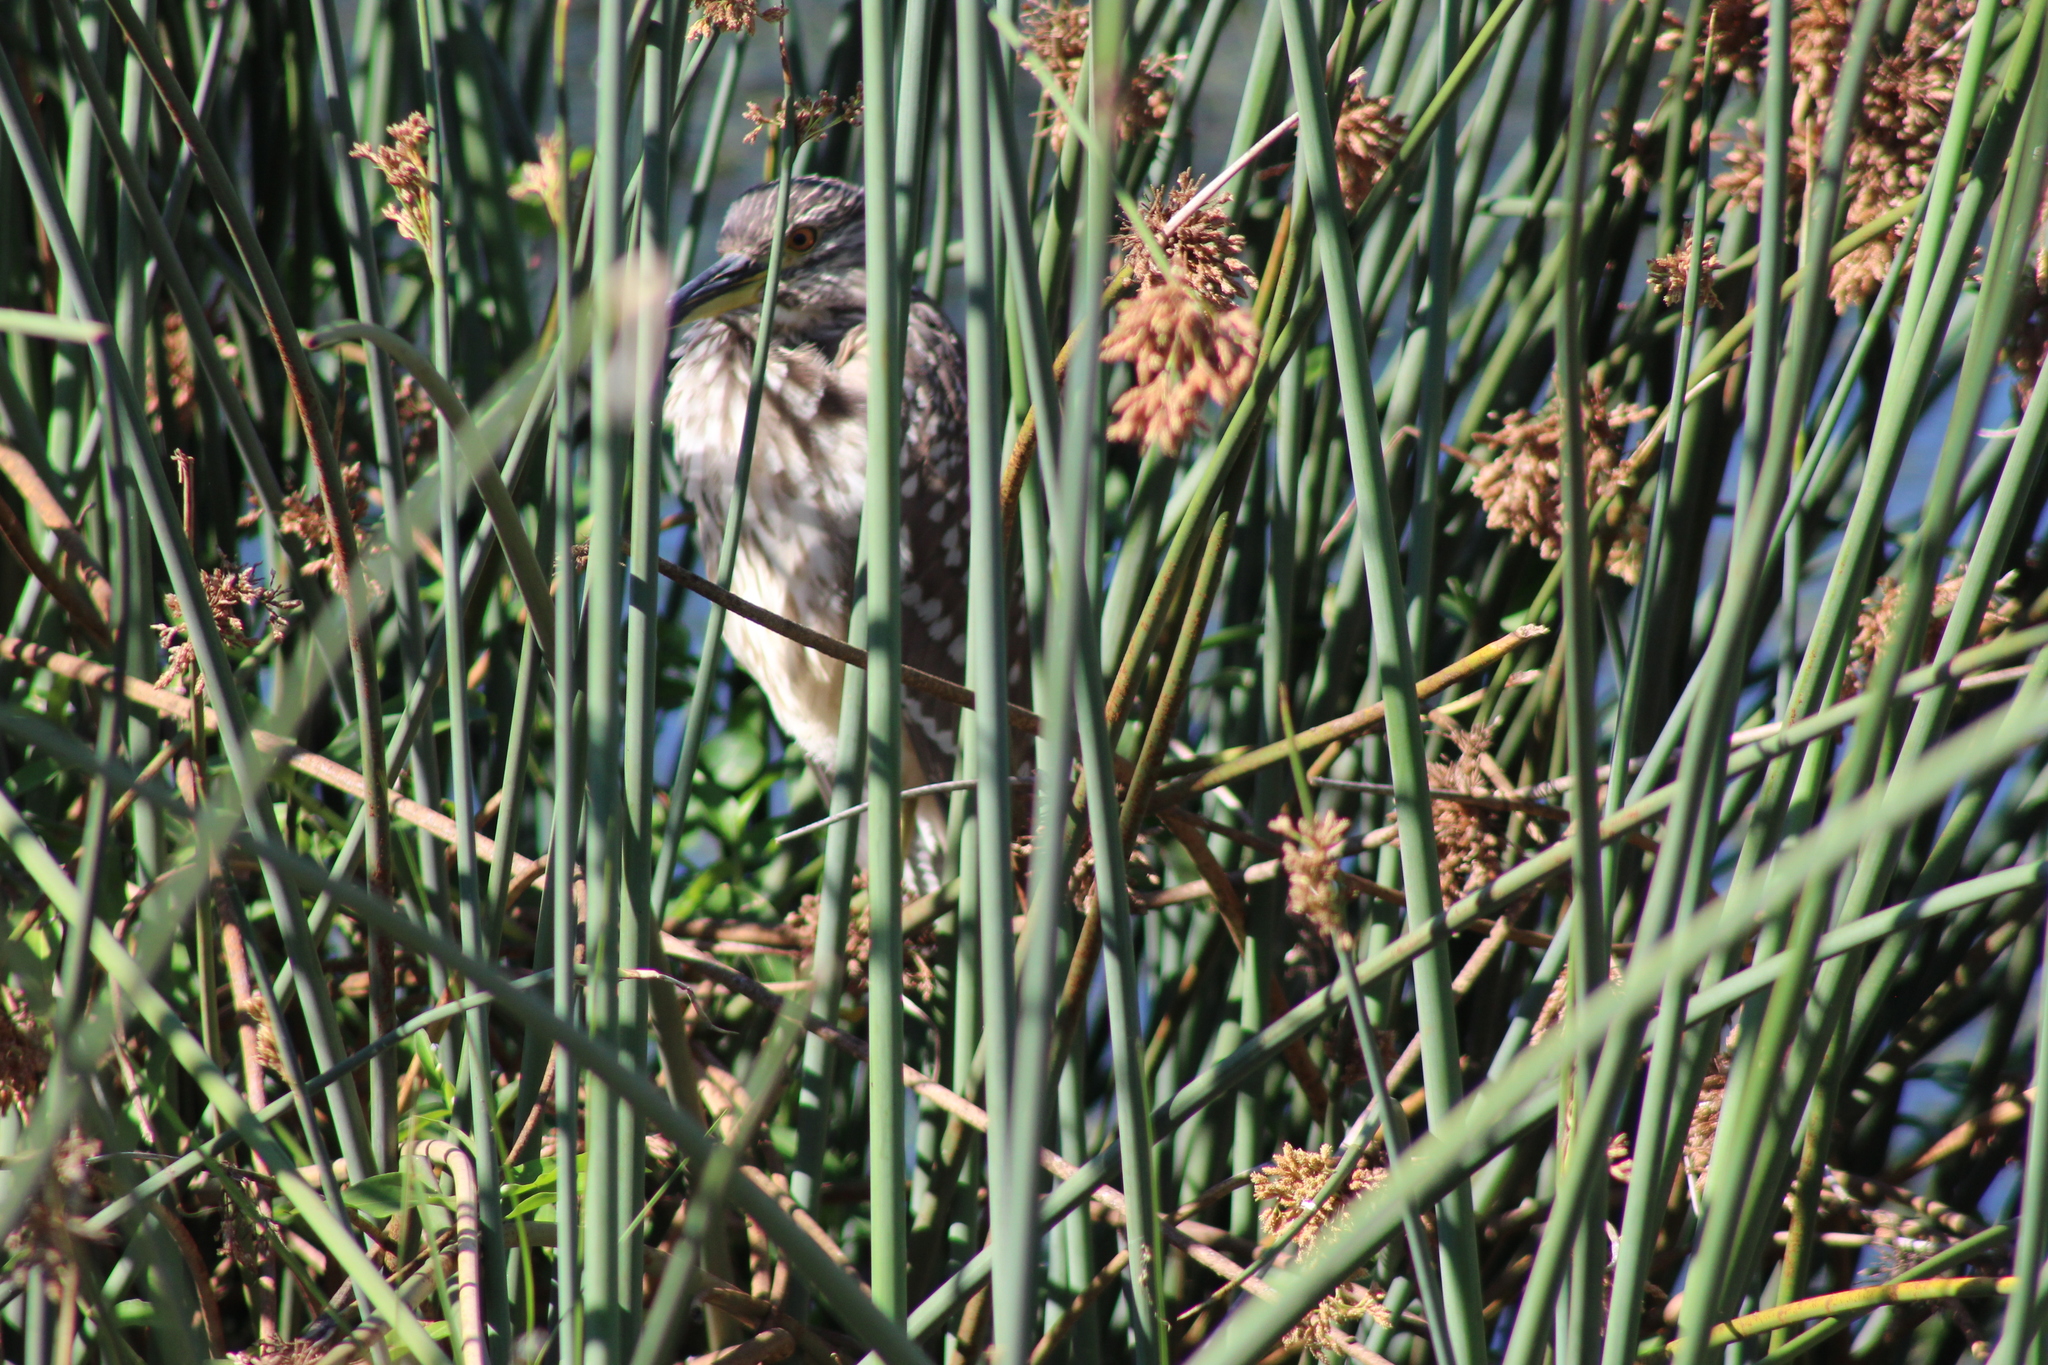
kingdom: Animalia
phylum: Chordata
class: Aves
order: Pelecaniformes
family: Ardeidae
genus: Nycticorax
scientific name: Nycticorax nycticorax
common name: Black-crowned night heron
